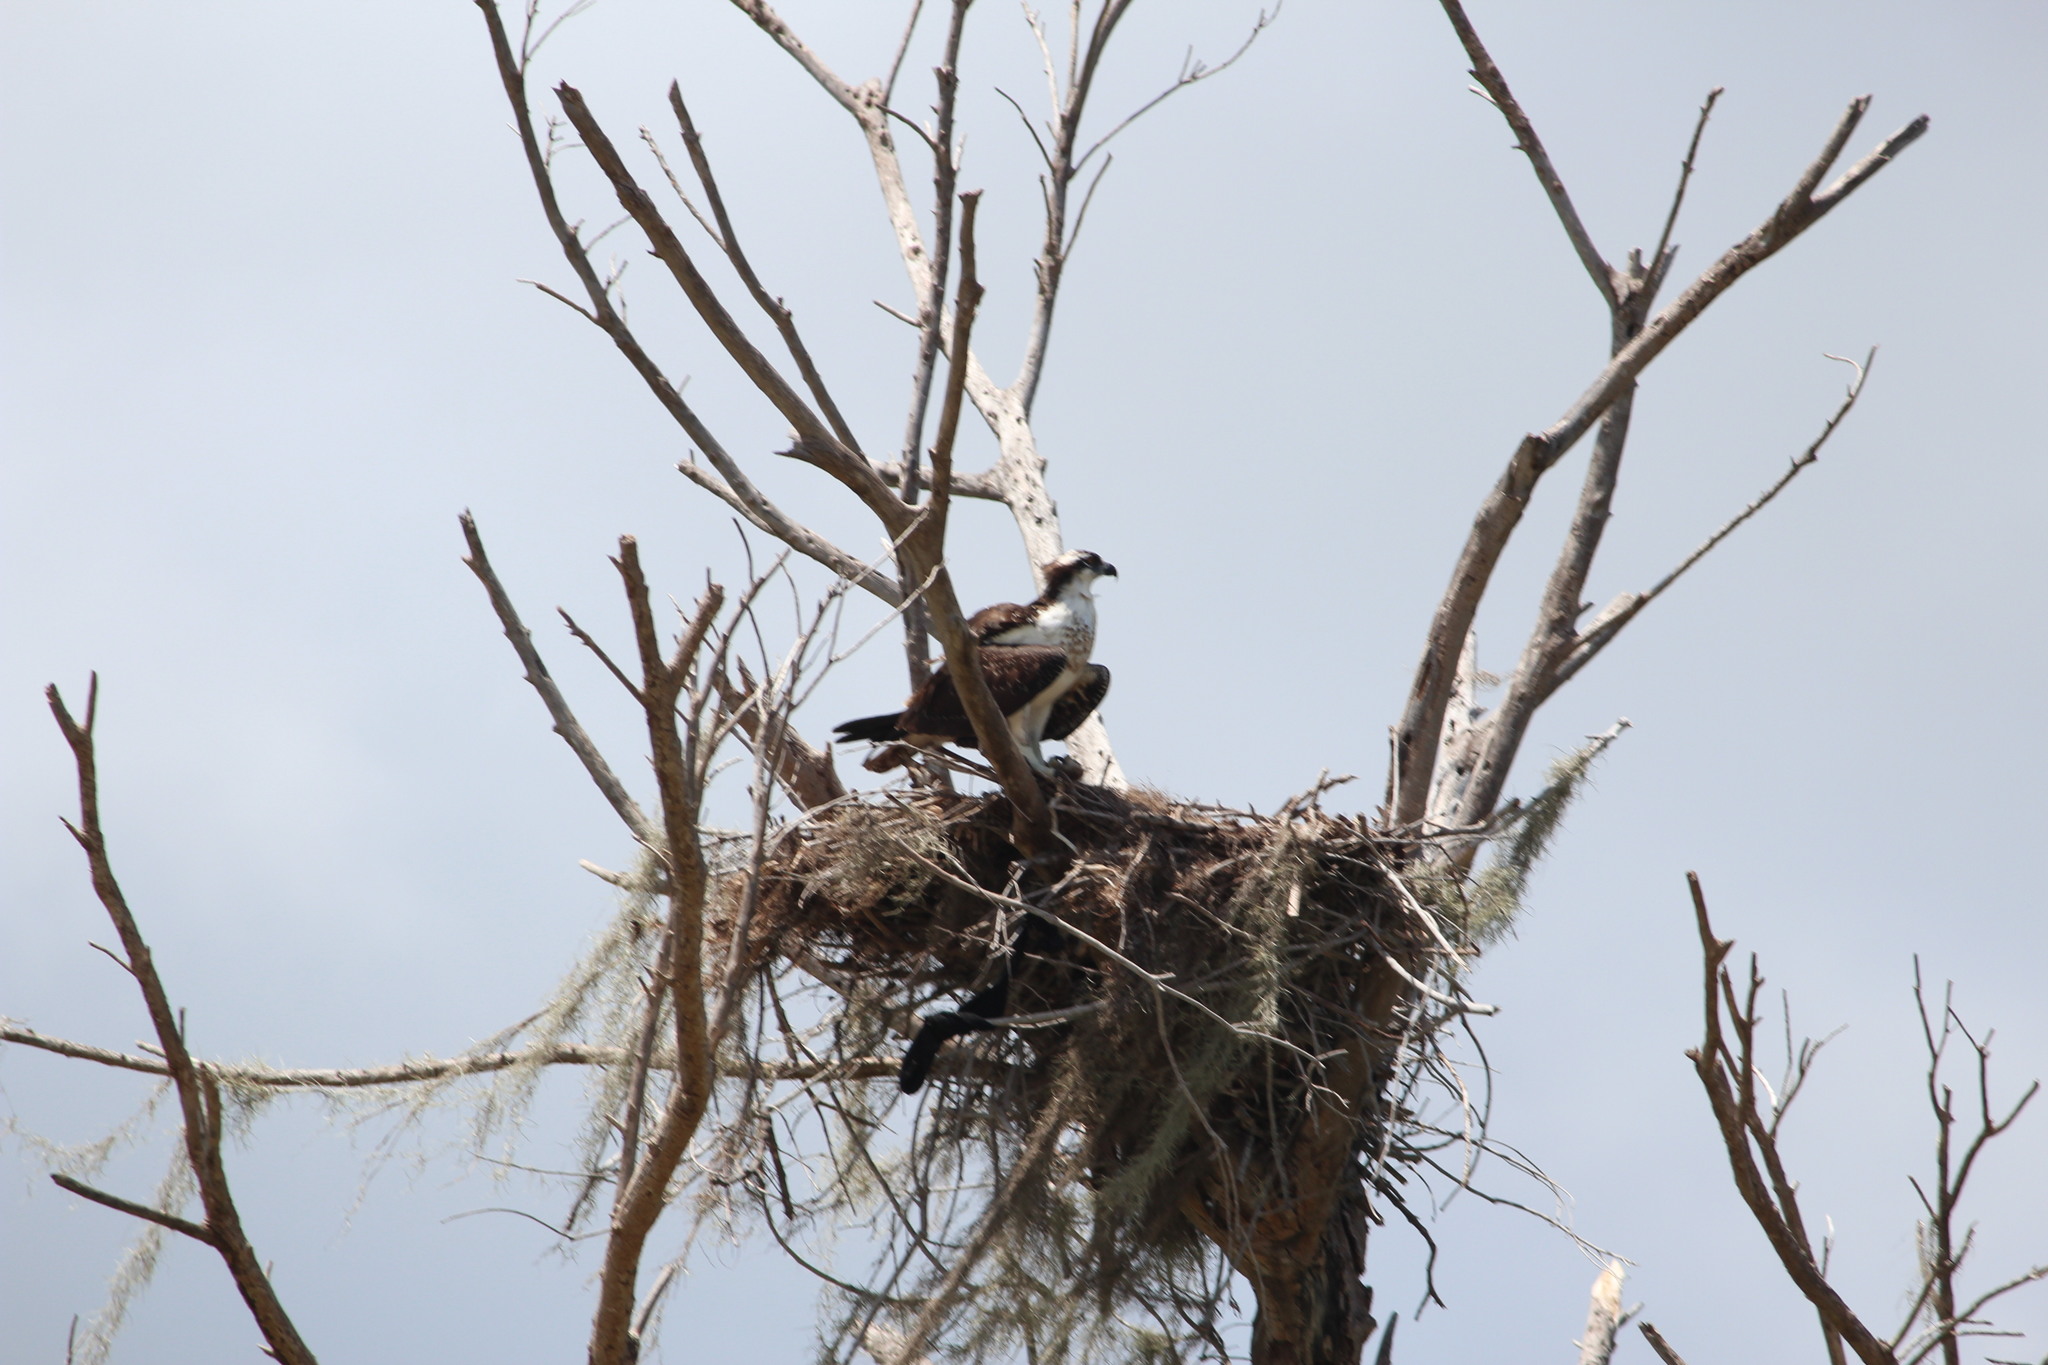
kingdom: Animalia
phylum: Chordata
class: Aves
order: Accipitriformes
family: Pandionidae
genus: Pandion
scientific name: Pandion haliaetus
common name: Osprey
